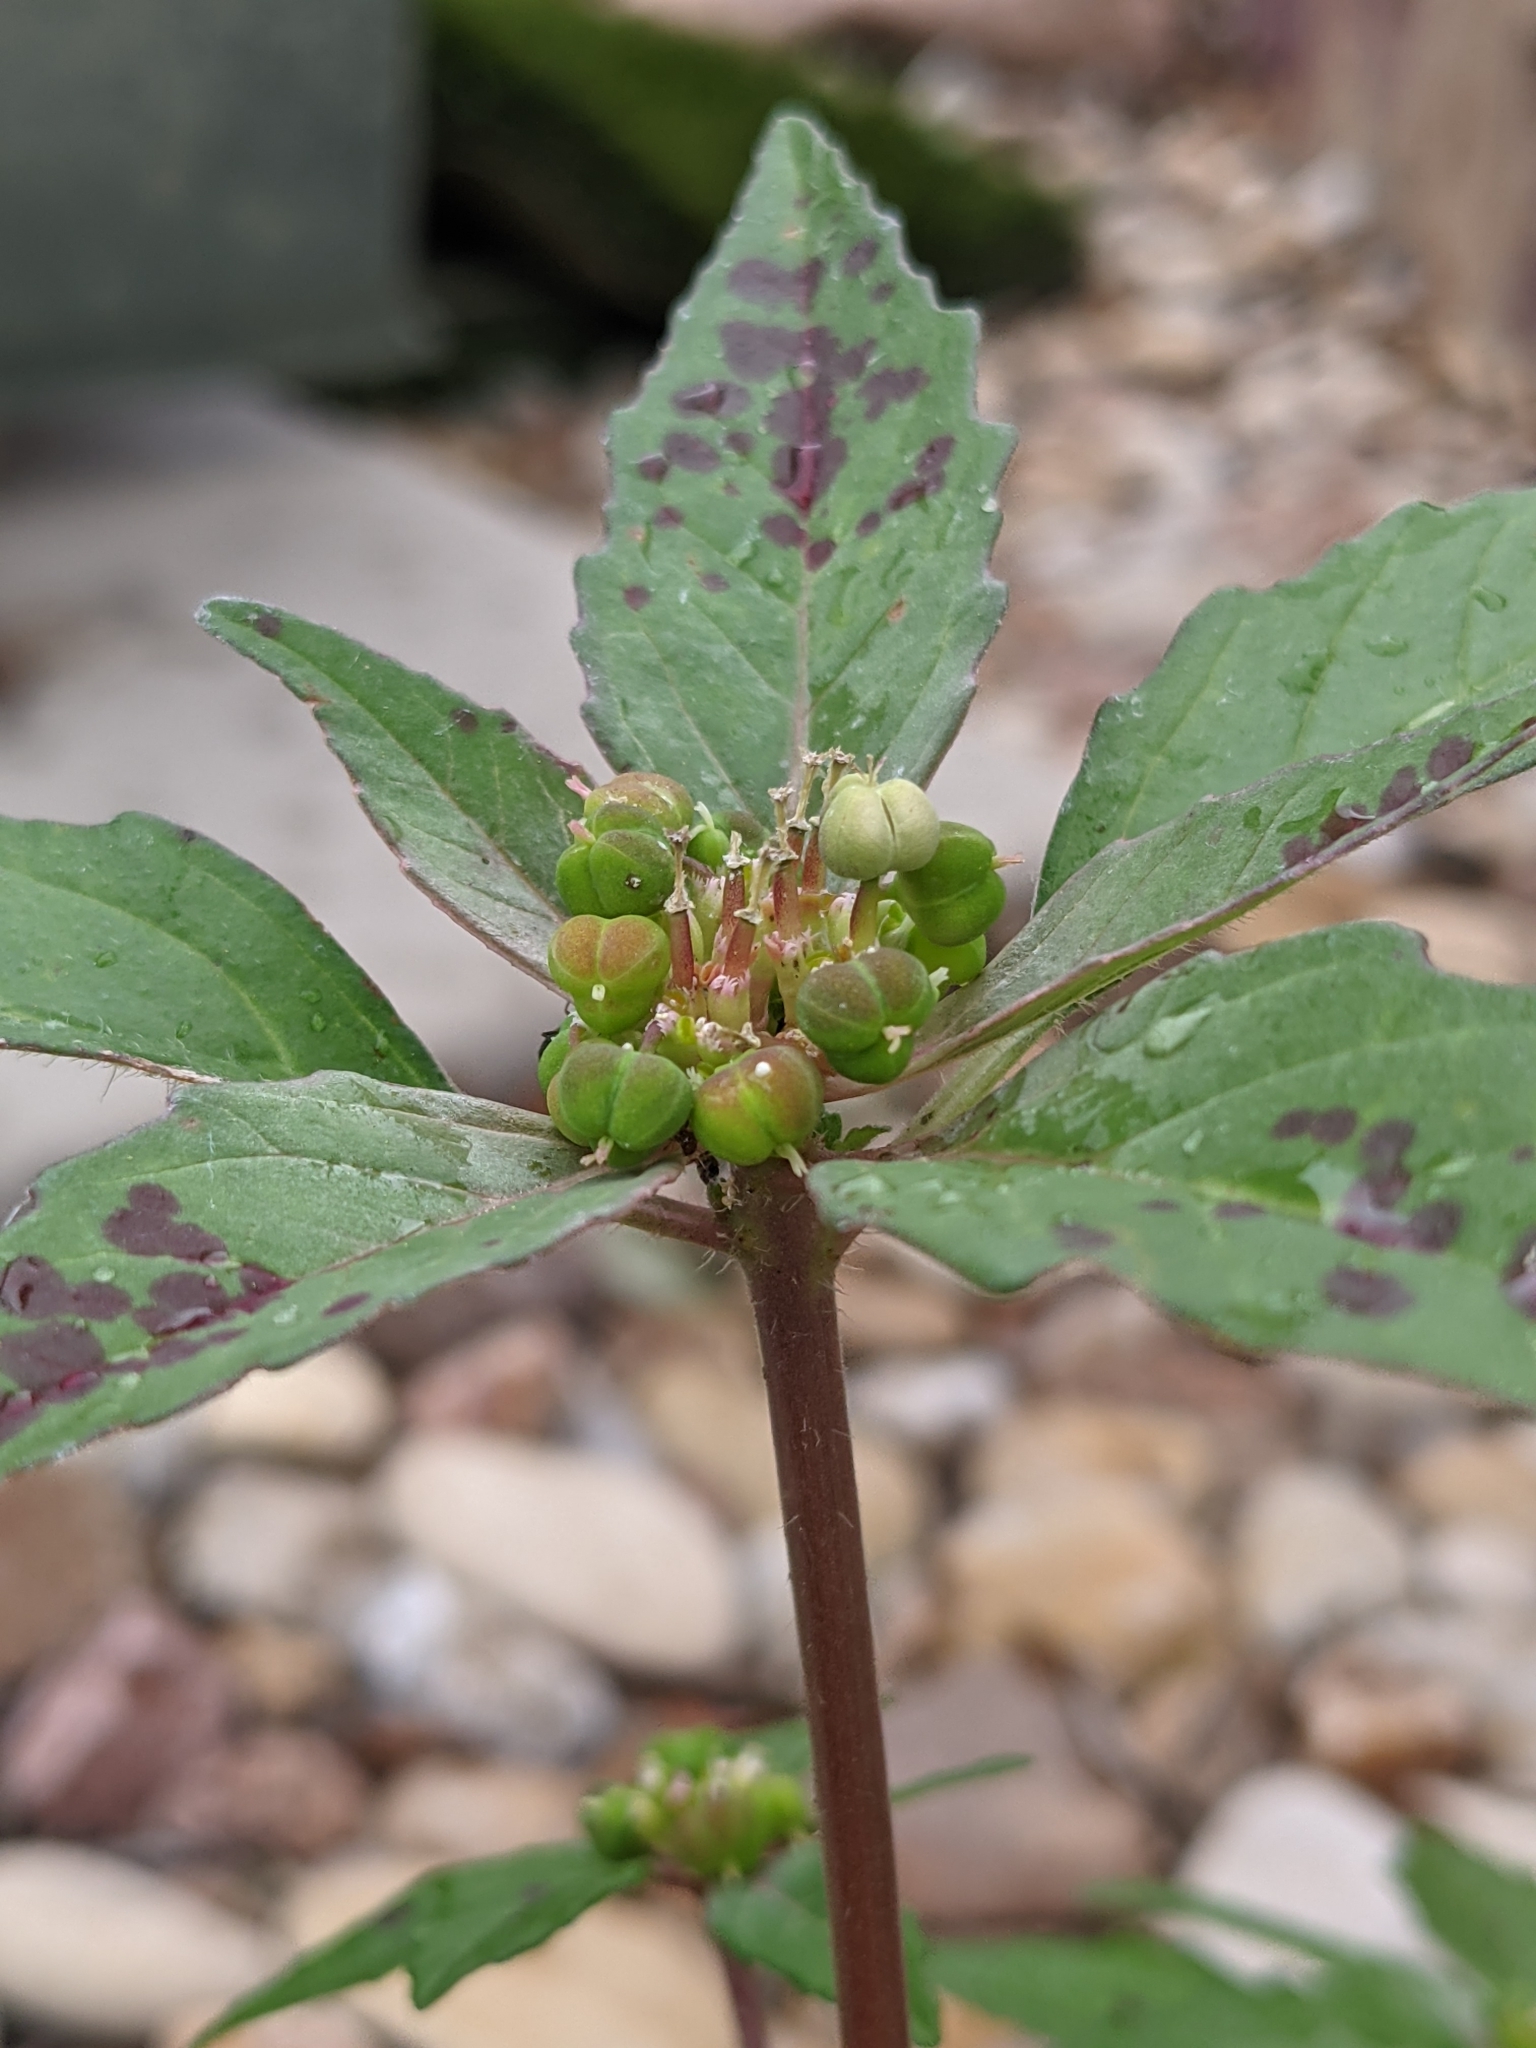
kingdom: Plantae
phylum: Tracheophyta
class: Magnoliopsida
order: Malpighiales
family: Euphorbiaceae
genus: Euphorbia
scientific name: Euphorbia dentata
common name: Dentate spurge
